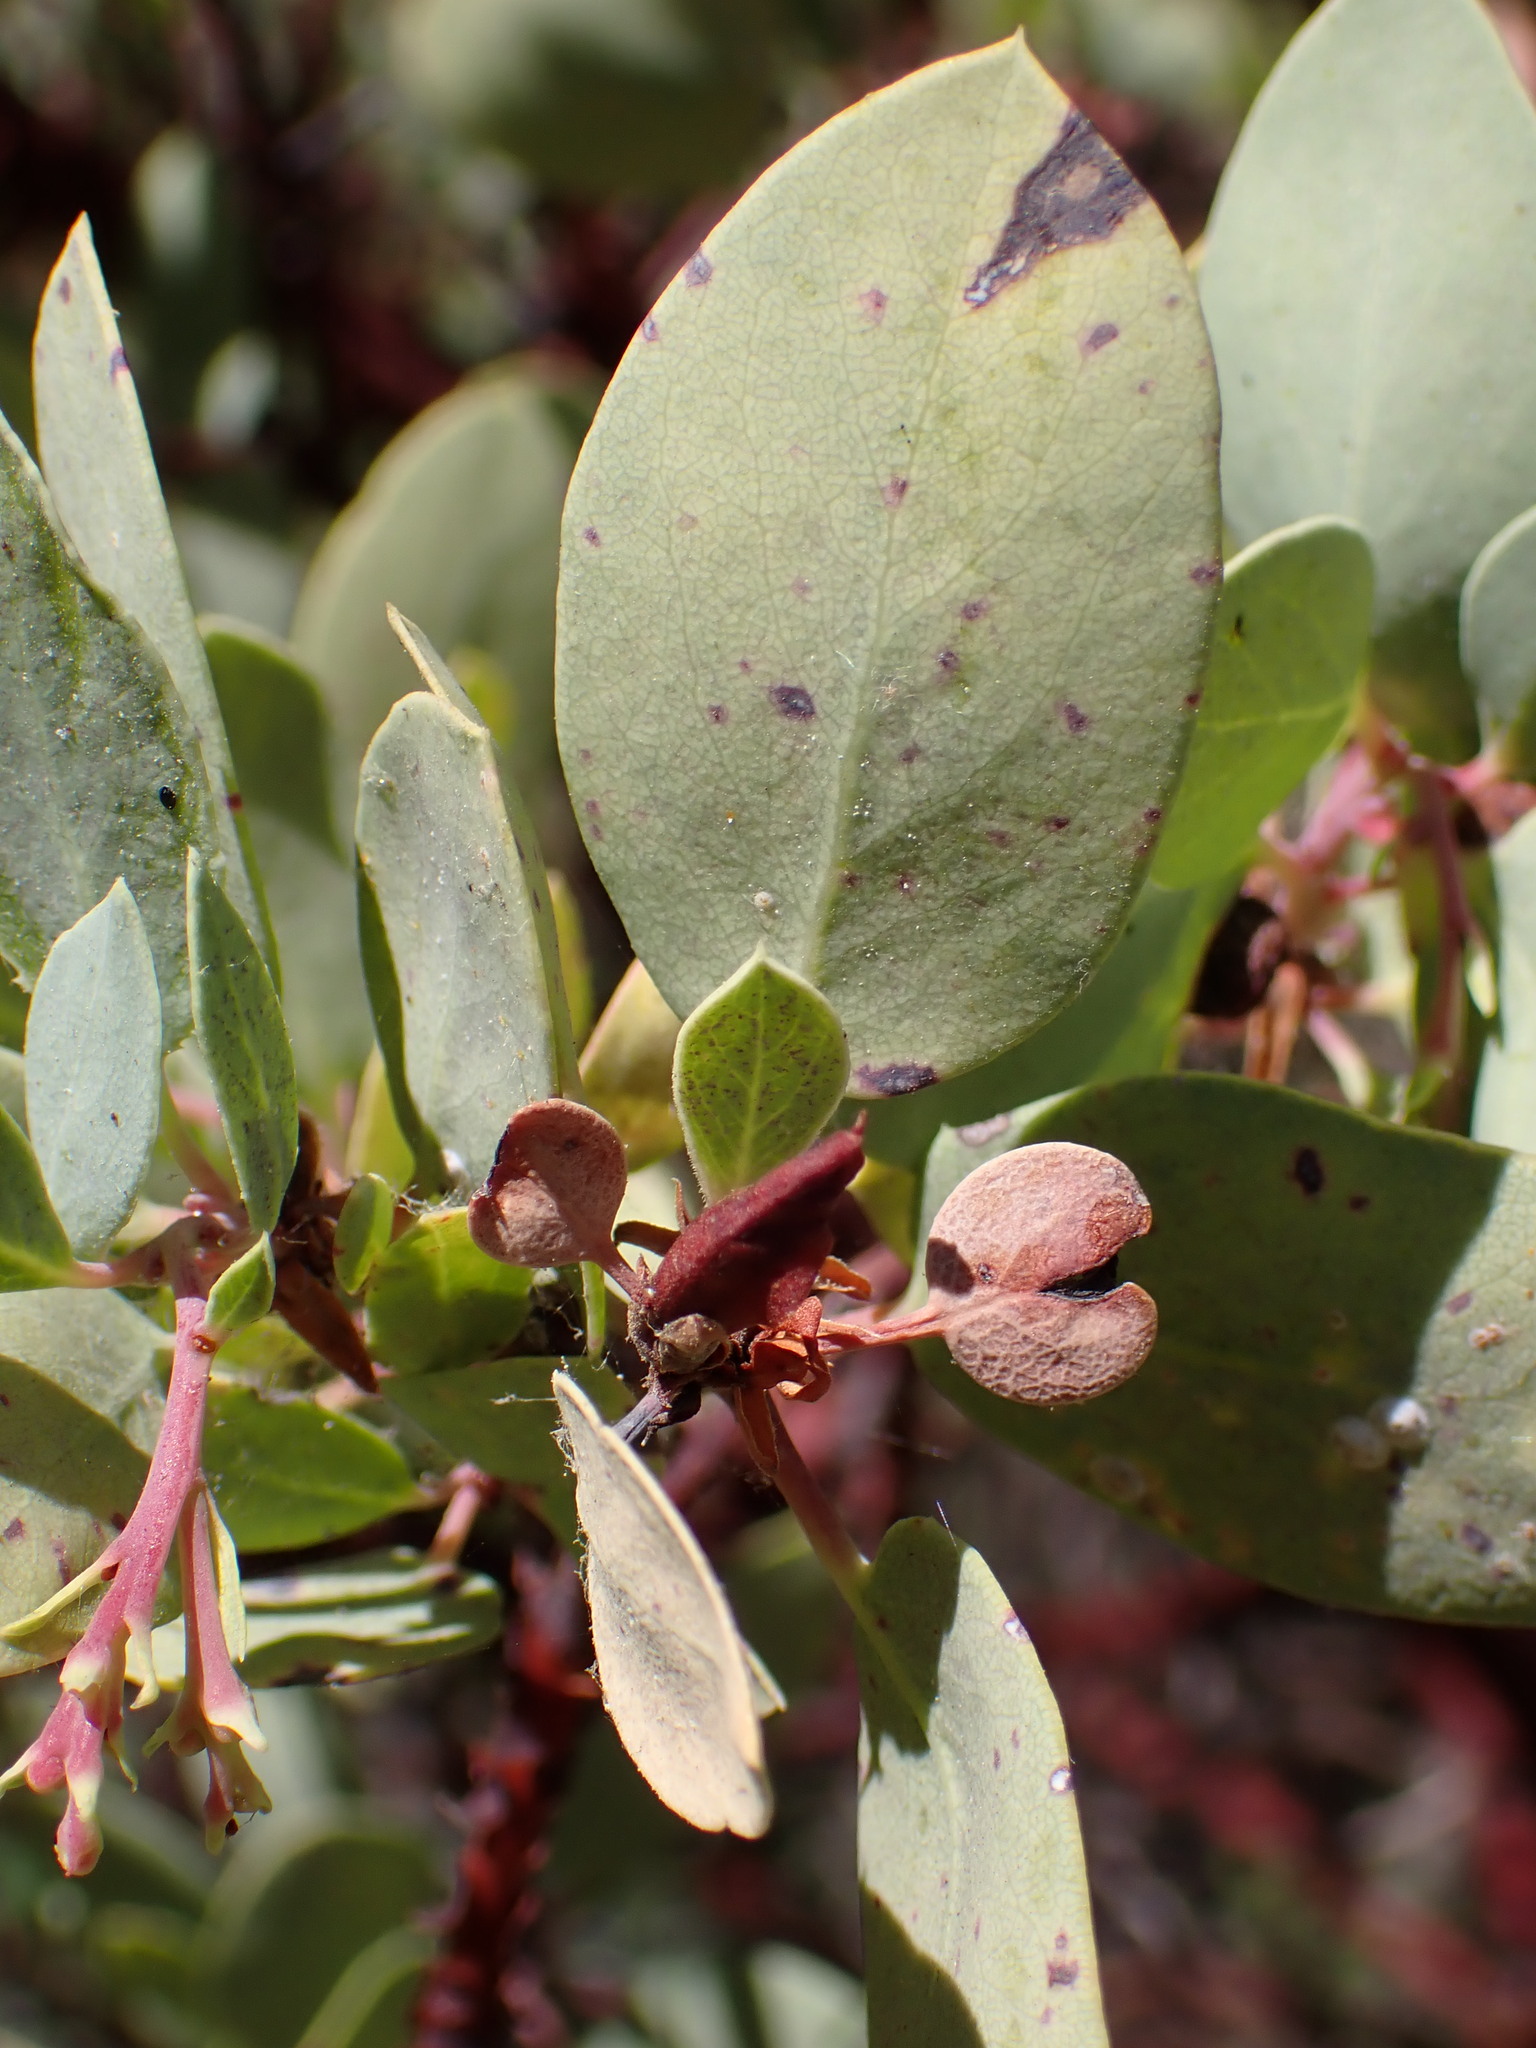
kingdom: Plantae
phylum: Tracheophyta
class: Magnoliopsida
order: Ericales
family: Ericaceae
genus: Arctostaphylos
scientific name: Arctostaphylos glauca
